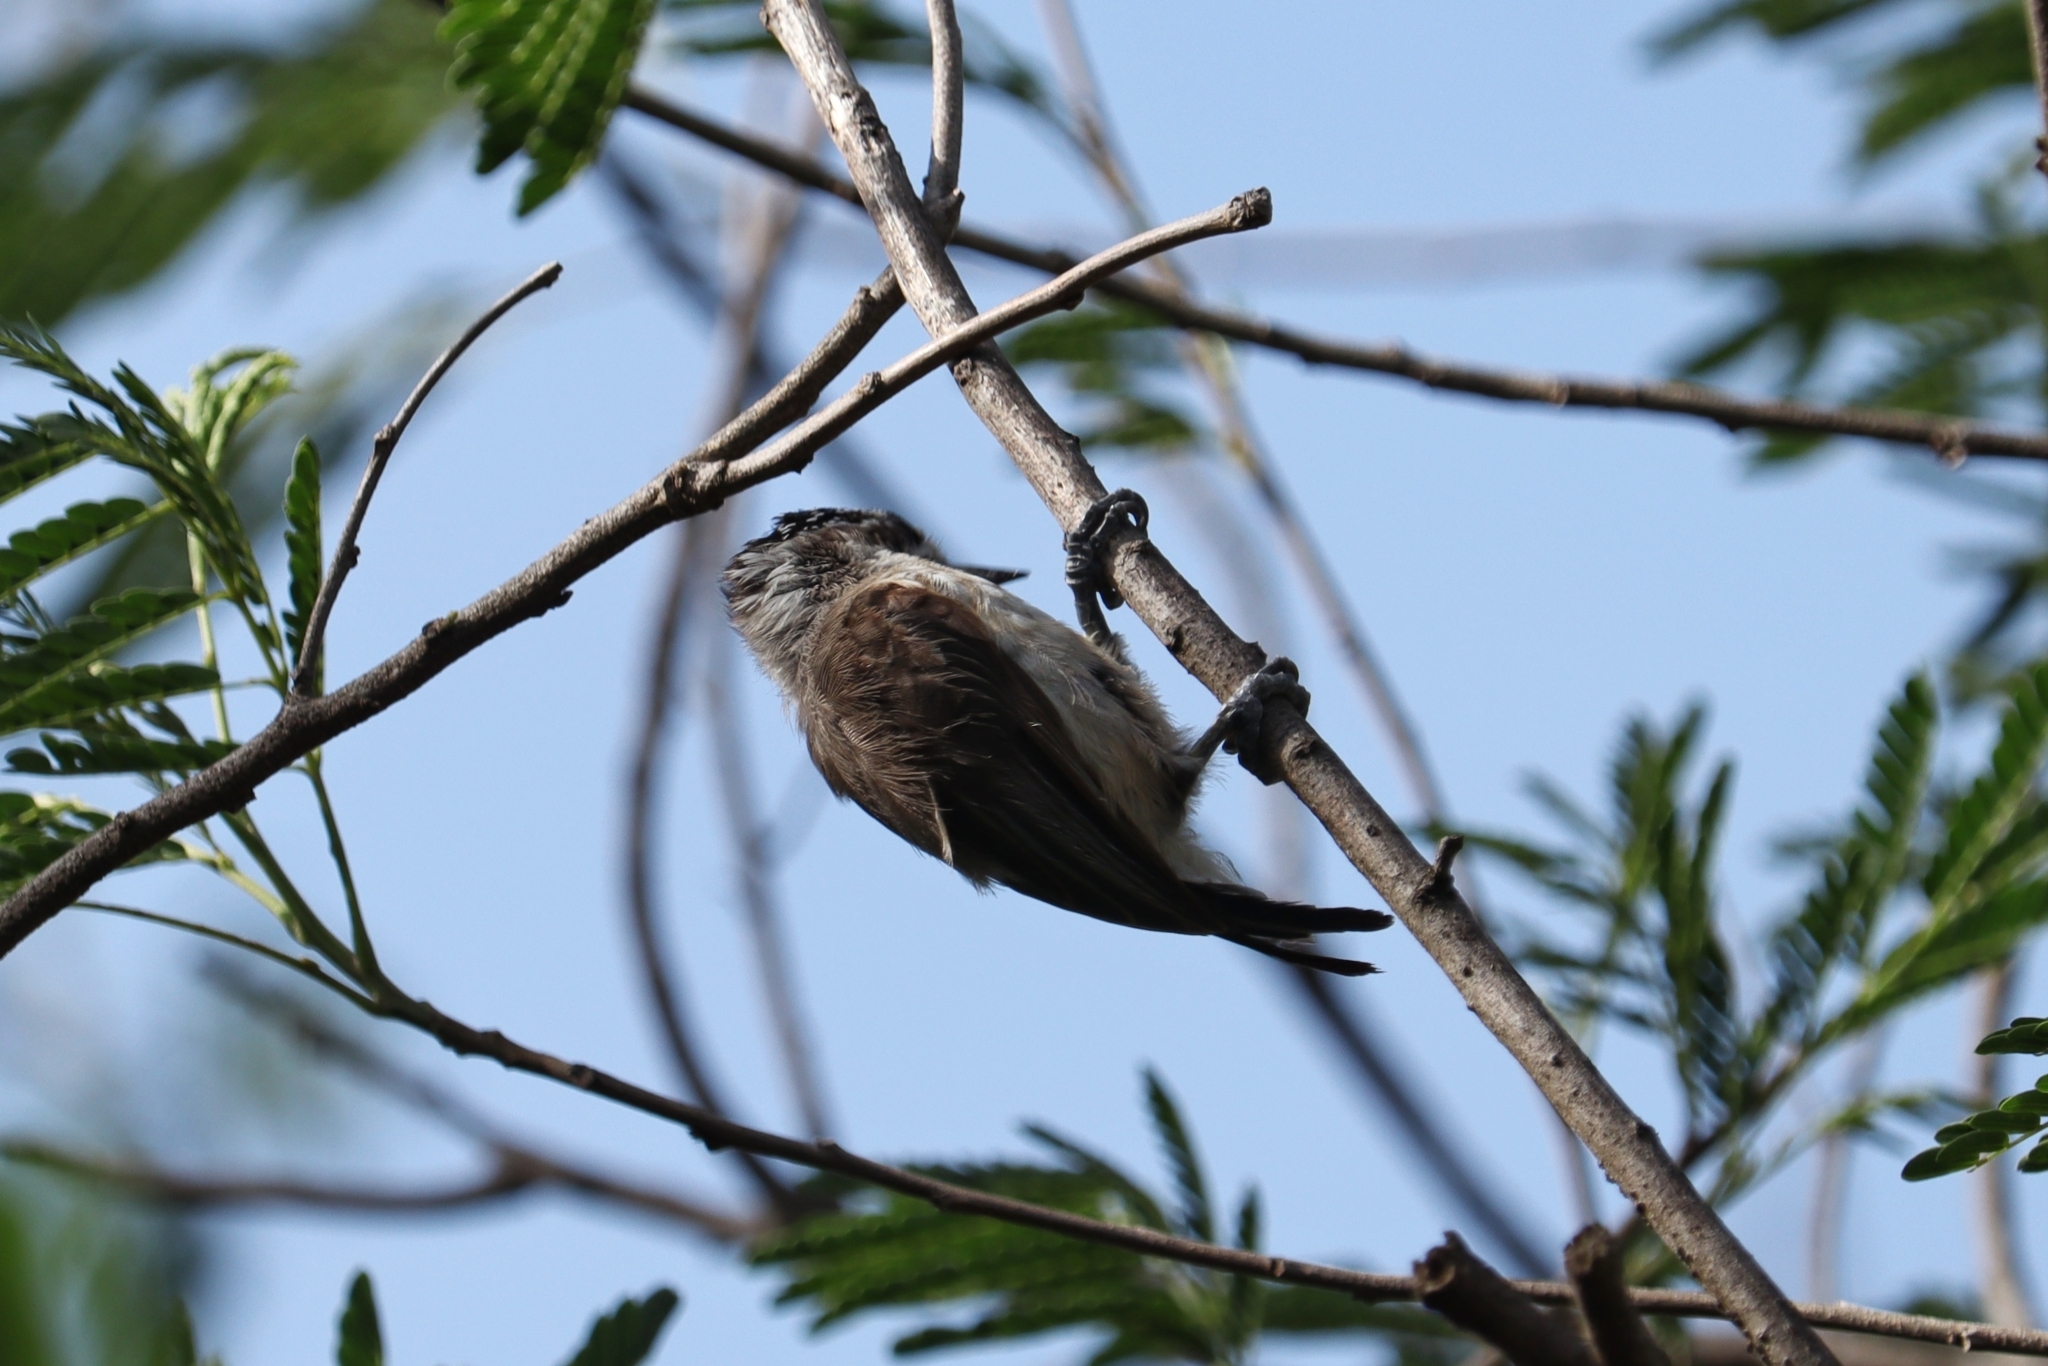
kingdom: Animalia
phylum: Chordata
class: Aves
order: Piciformes
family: Picidae
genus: Picumnus
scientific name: Picumnus limae
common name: Ochraceous piculet
